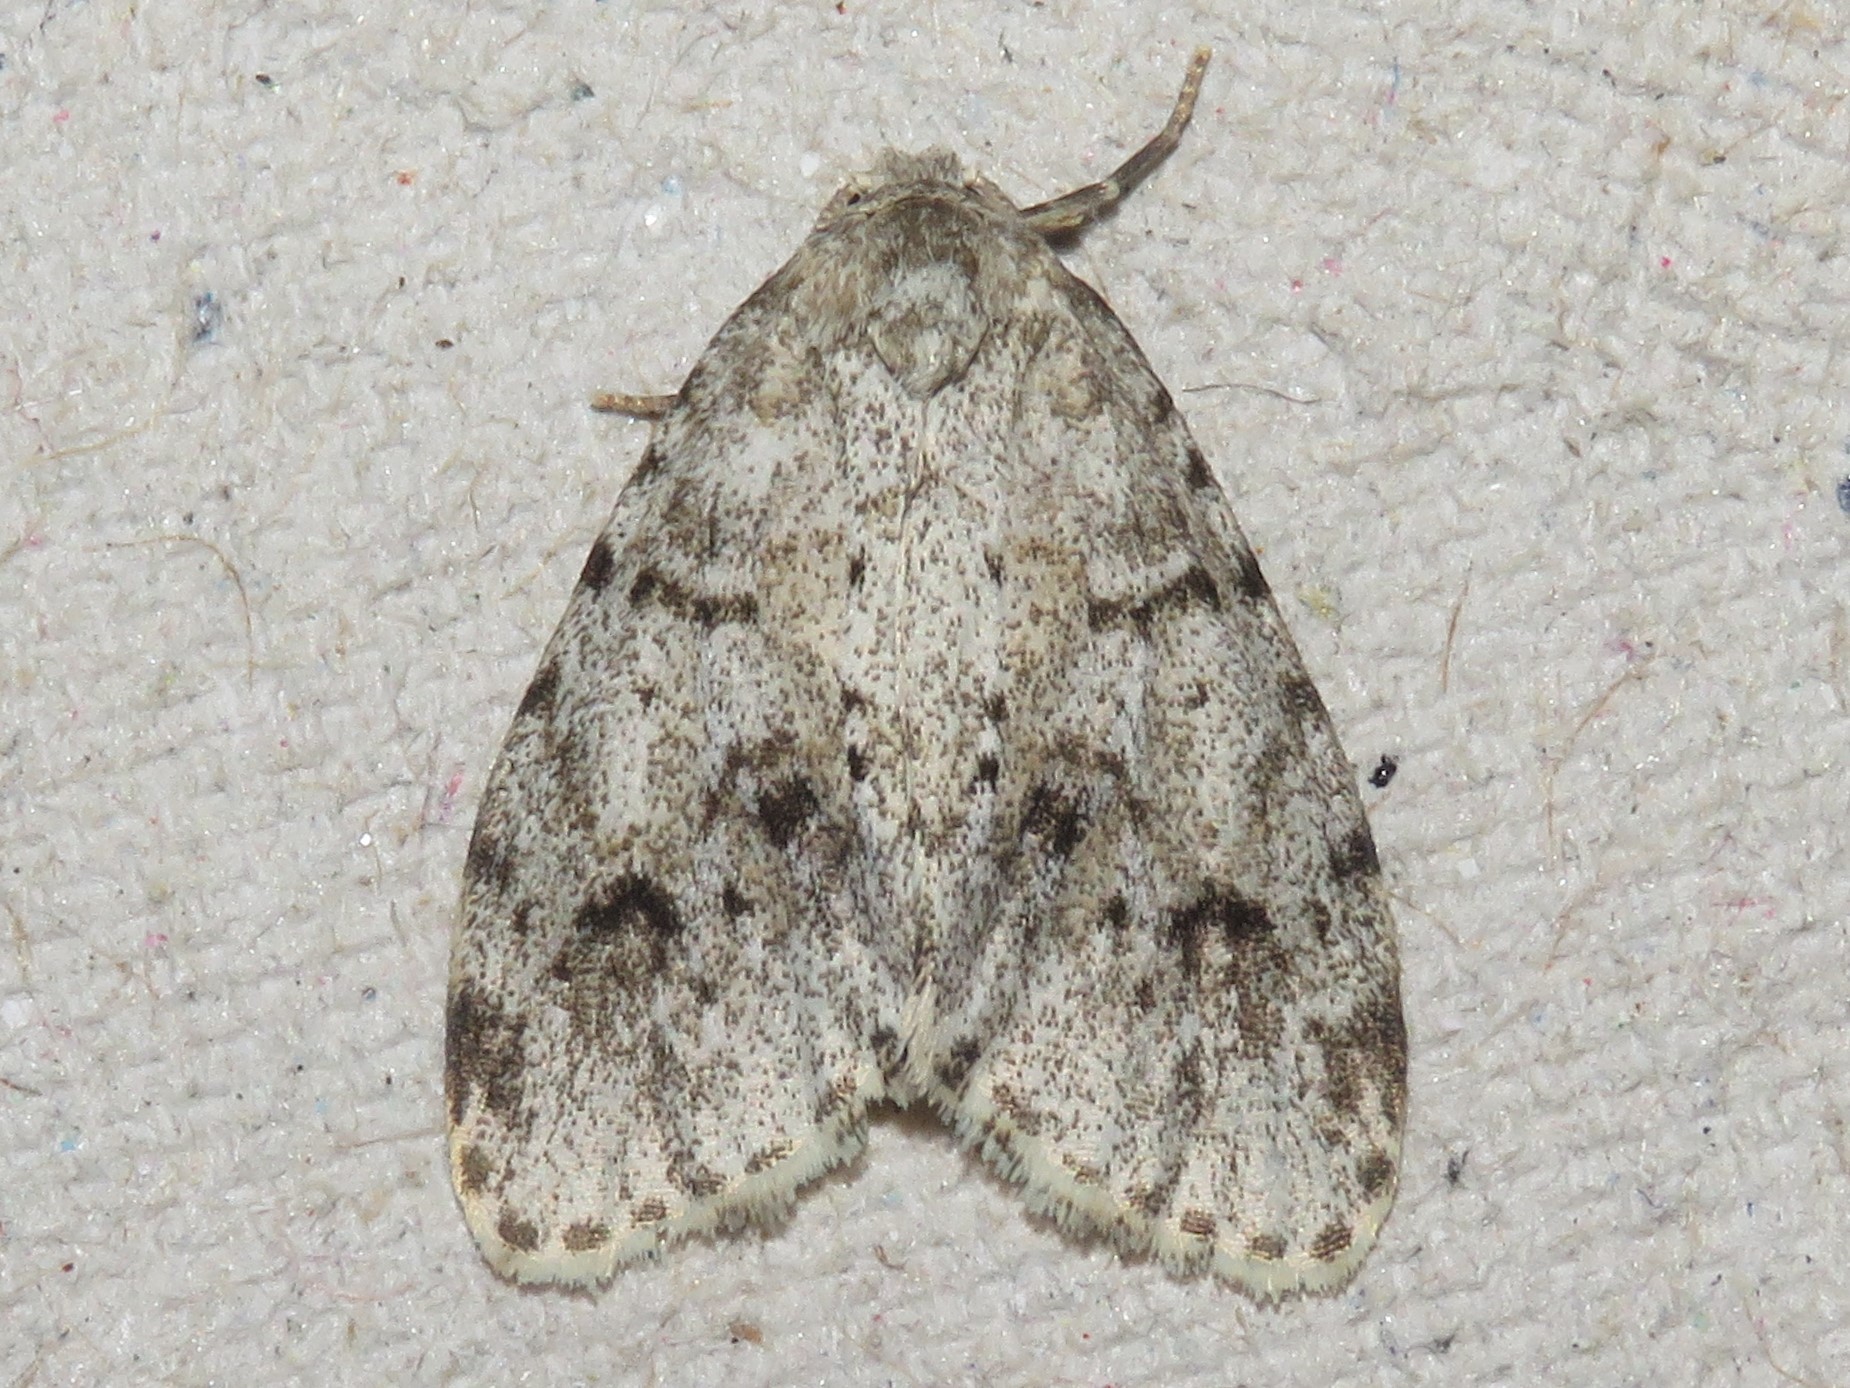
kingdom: Animalia
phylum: Arthropoda
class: Insecta
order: Lepidoptera
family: Erebidae
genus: Clemensia
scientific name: Clemensia albata
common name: Little white lichen moth
